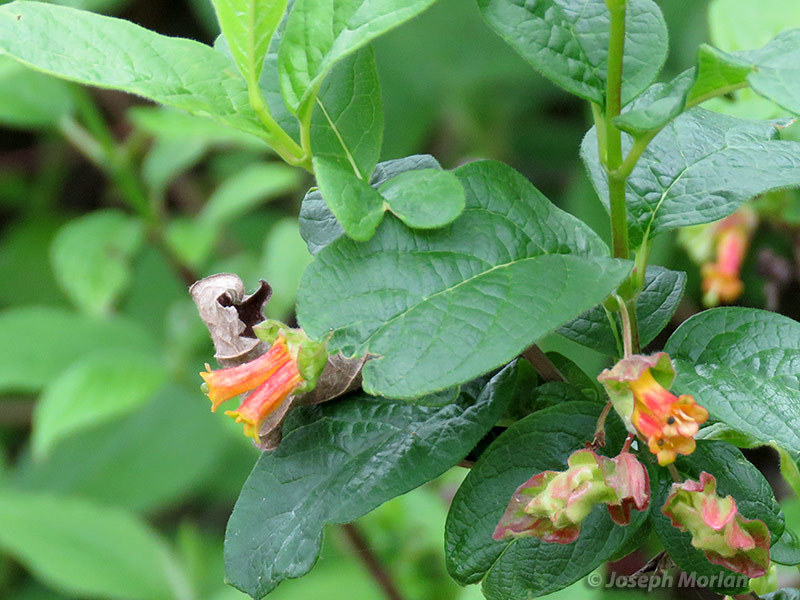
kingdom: Plantae
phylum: Tracheophyta
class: Magnoliopsida
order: Dipsacales
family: Caprifoliaceae
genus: Lonicera
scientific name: Lonicera involucrata
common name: Californian honeysuckle
